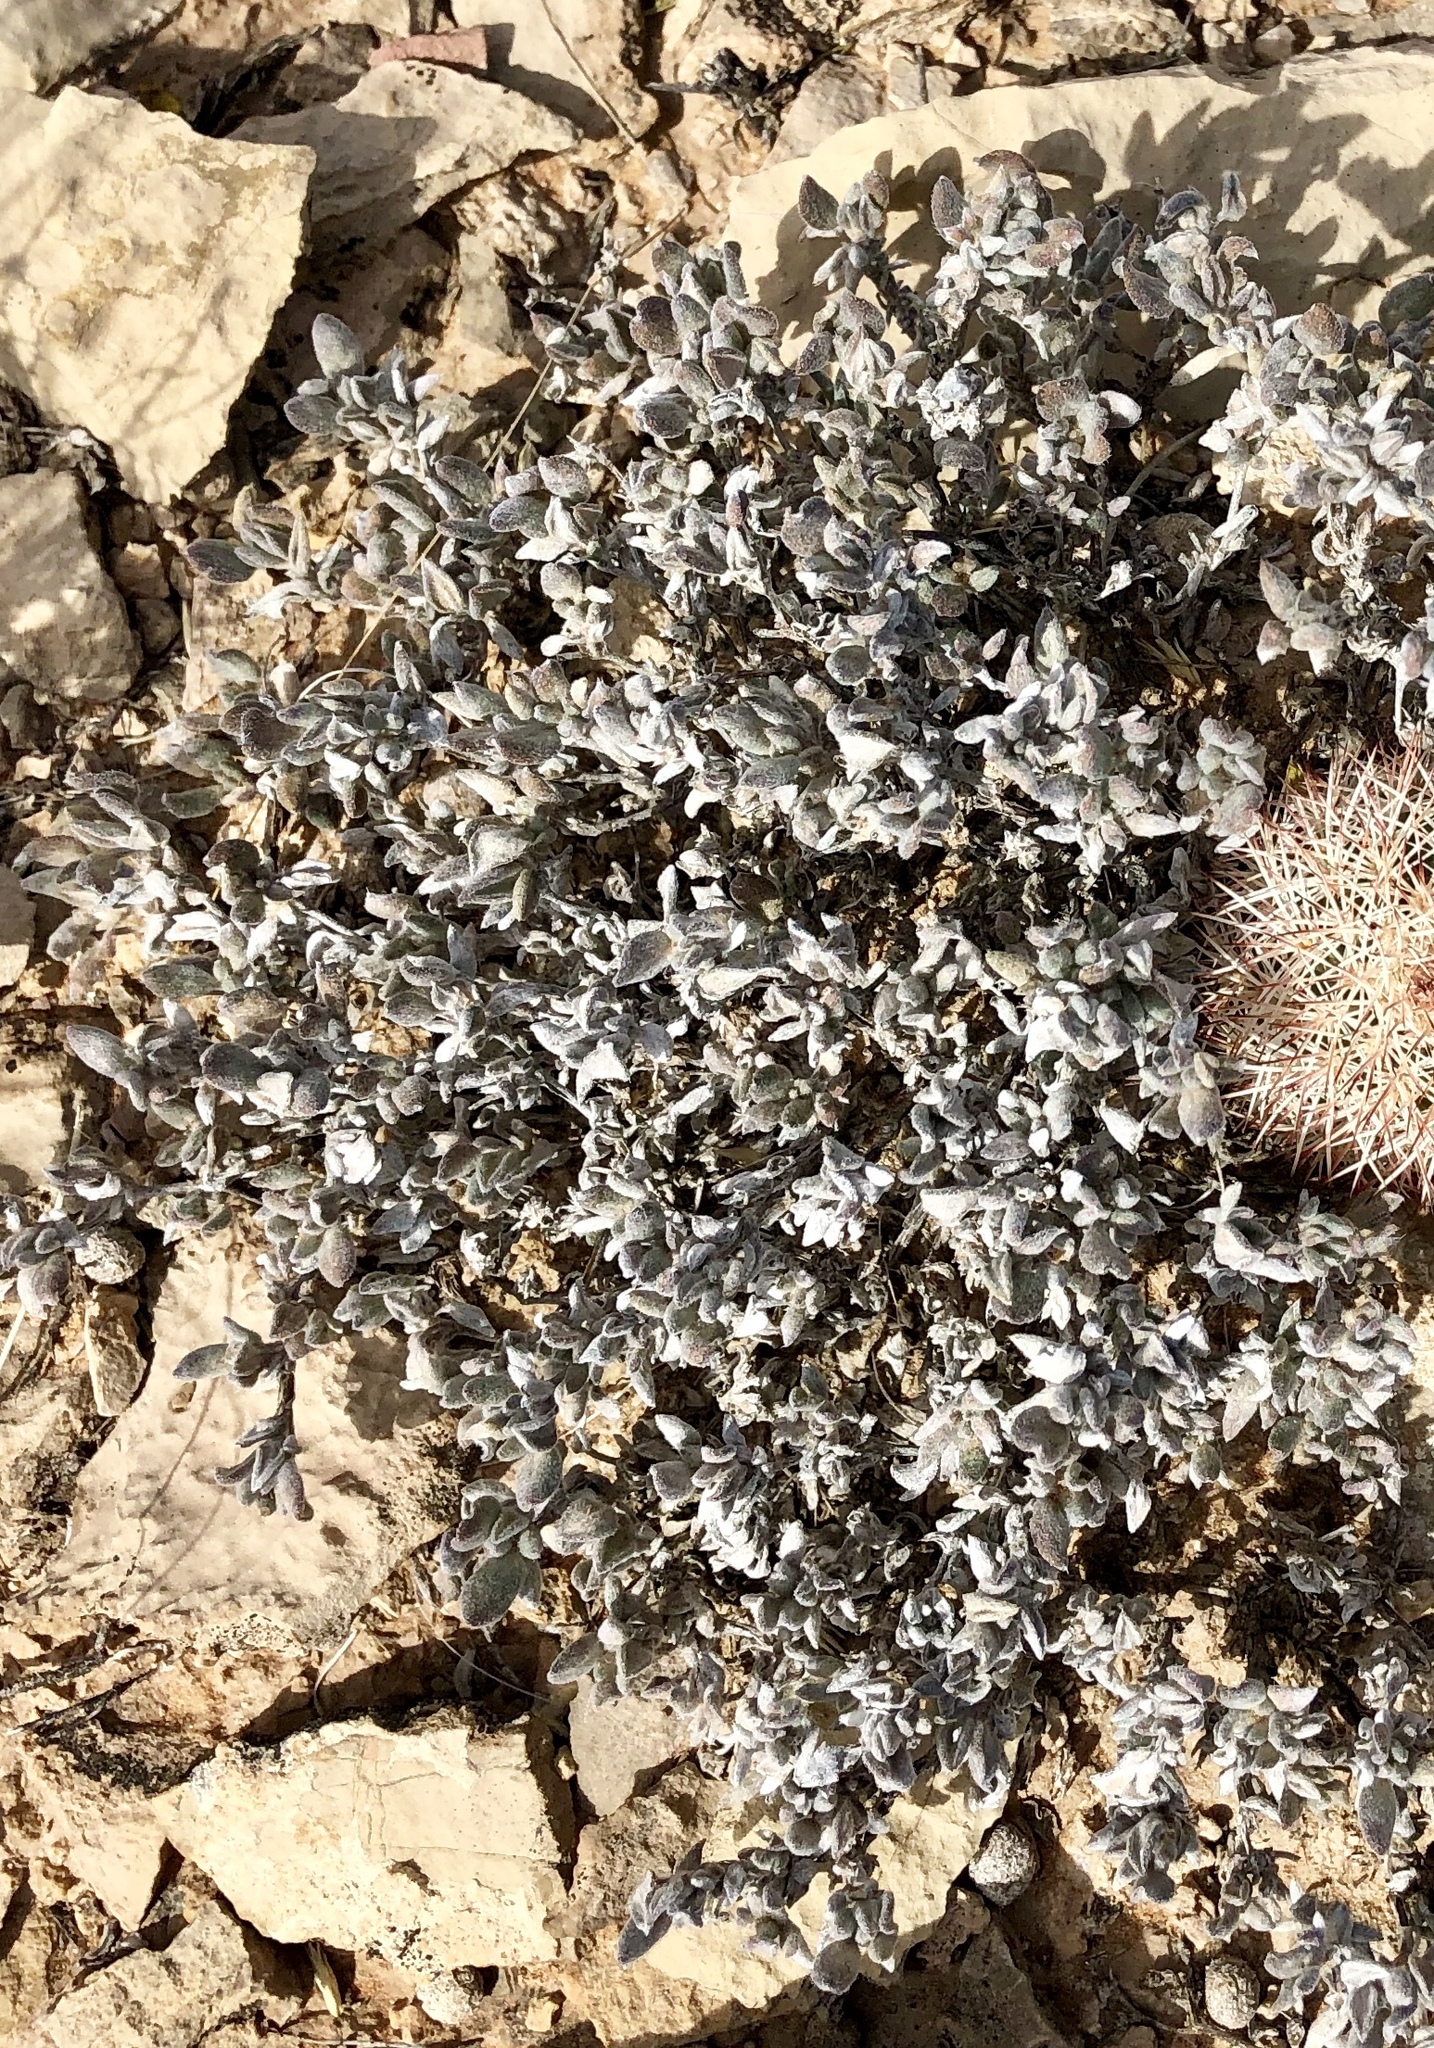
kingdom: Plantae
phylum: Tracheophyta
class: Magnoliopsida
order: Boraginales
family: Ehretiaceae
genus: Tiquilia
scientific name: Tiquilia canescens
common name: Hairy tiquilia
